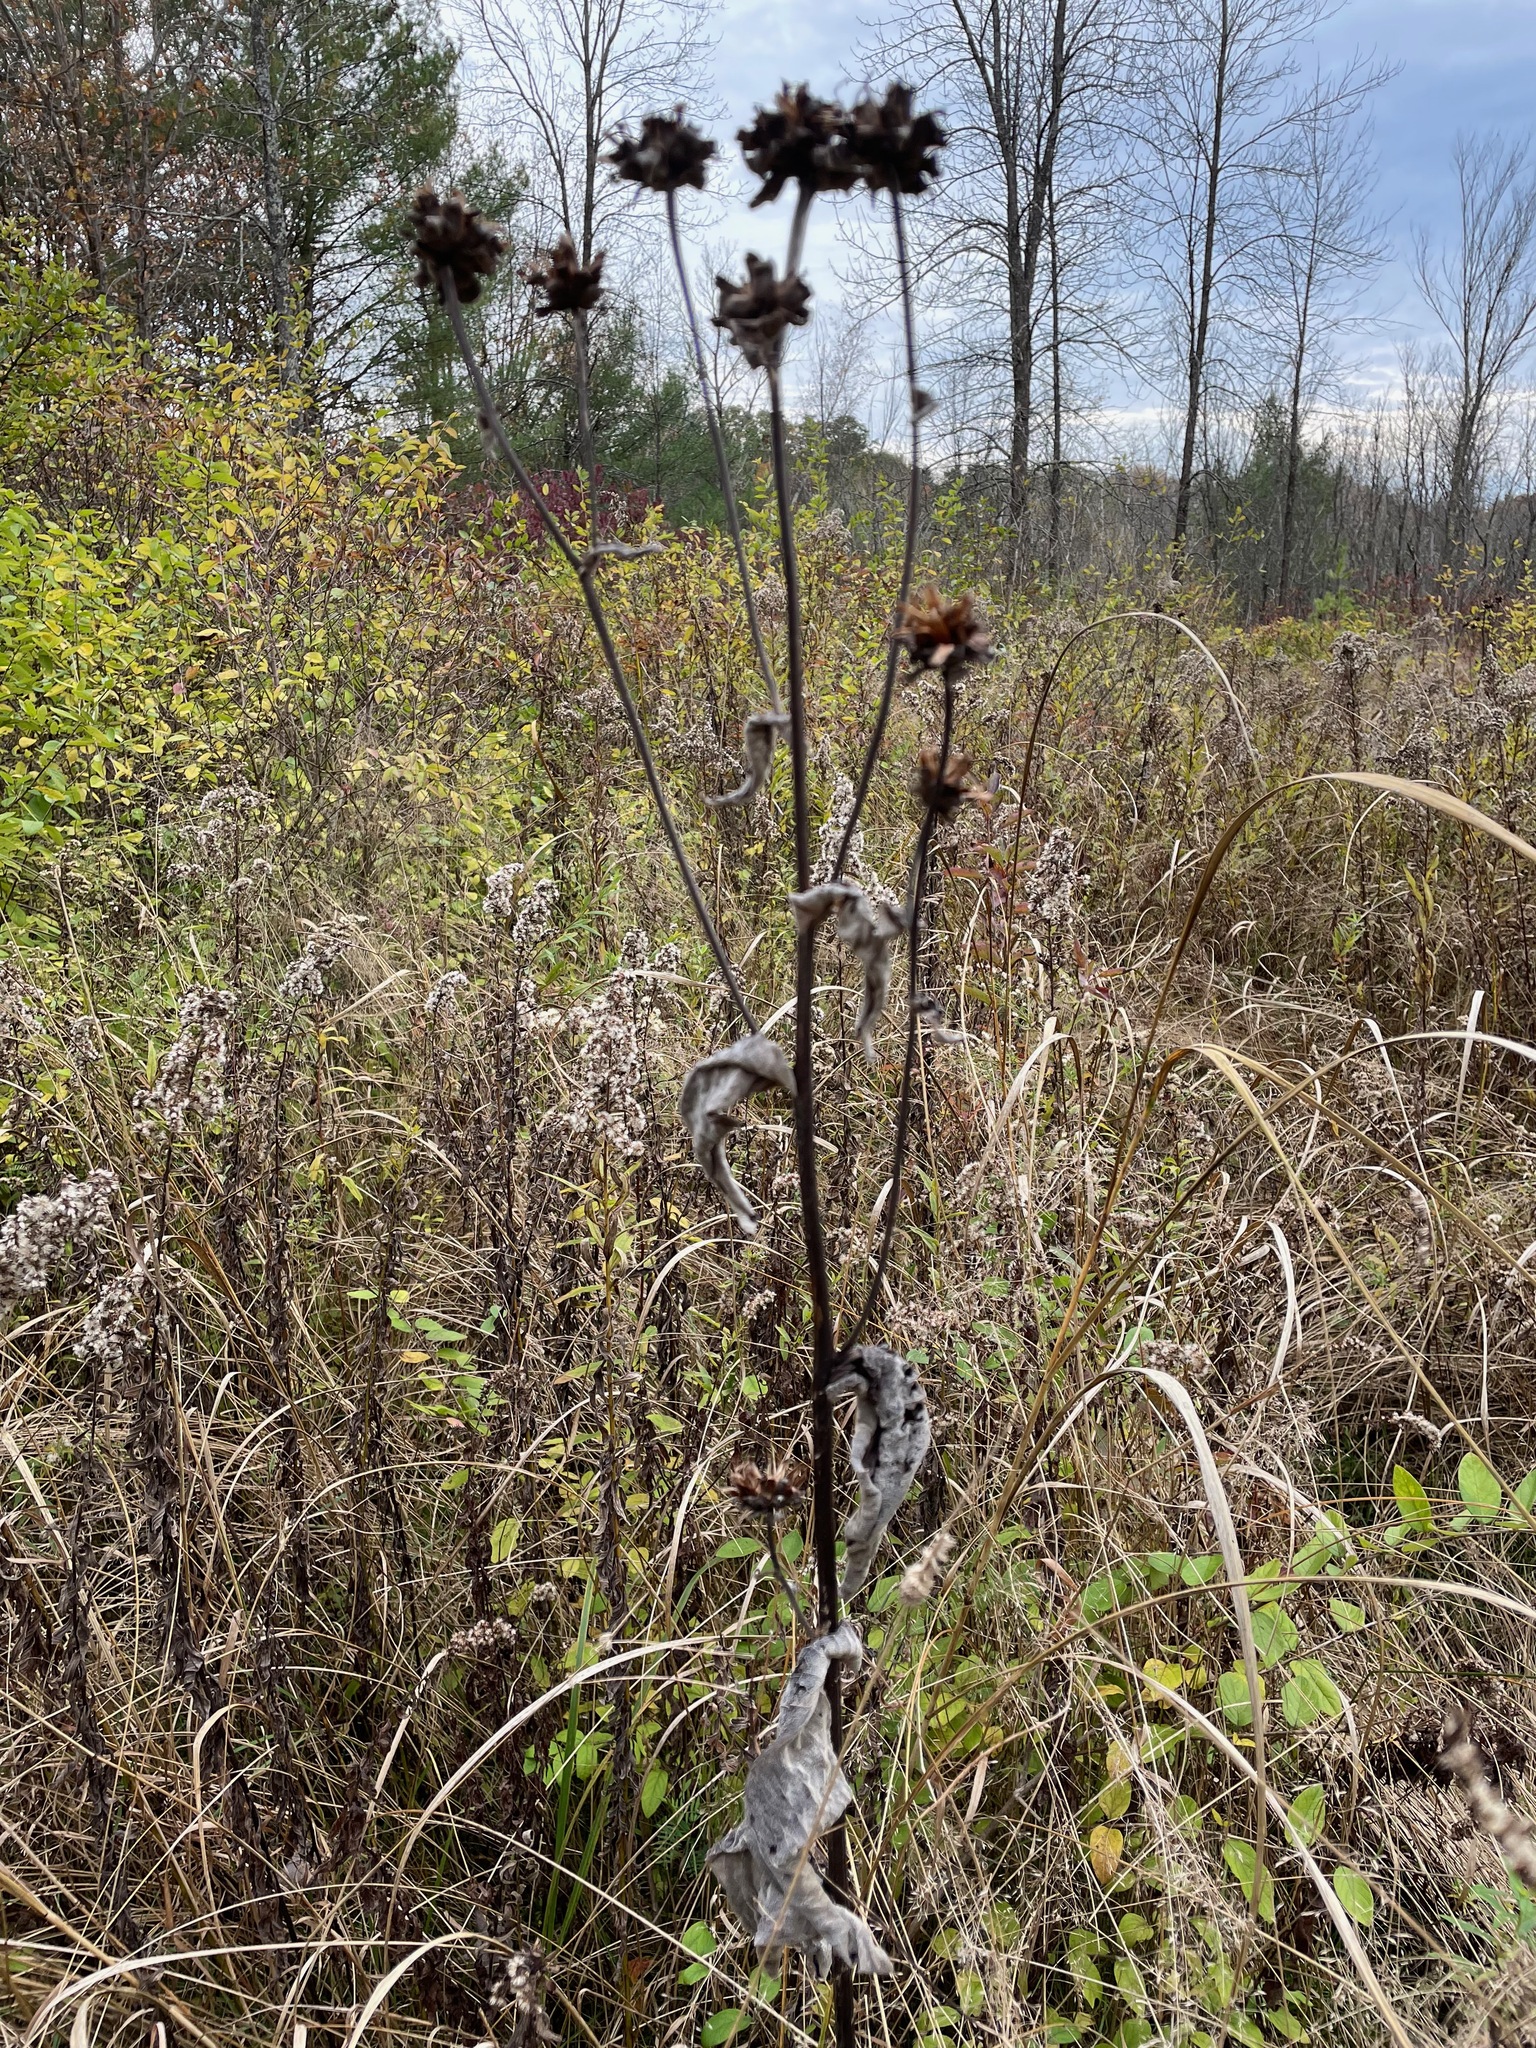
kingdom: Plantae
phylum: Tracheophyta
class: Magnoliopsida
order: Asterales
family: Asteraceae
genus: Inula
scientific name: Inula helenium
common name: Elecampane
